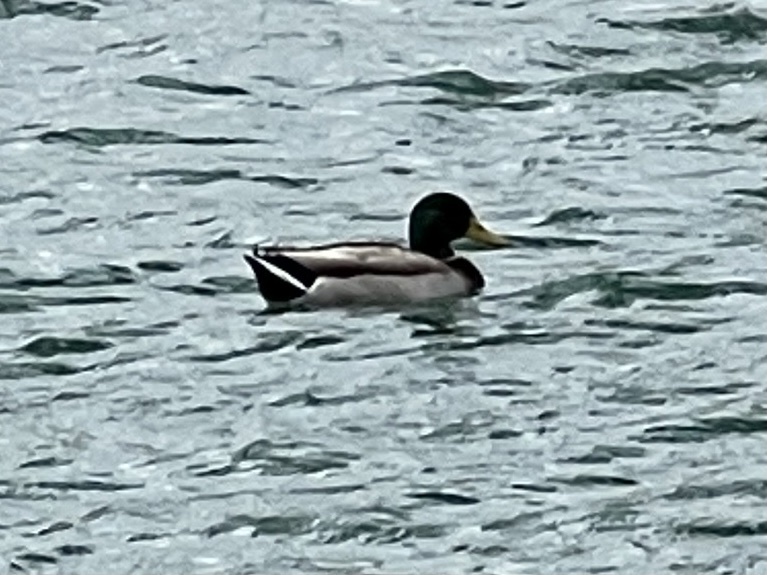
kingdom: Animalia
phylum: Chordata
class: Aves
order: Anseriformes
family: Anatidae
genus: Anas
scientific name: Anas platyrhynchos
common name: Mallard
